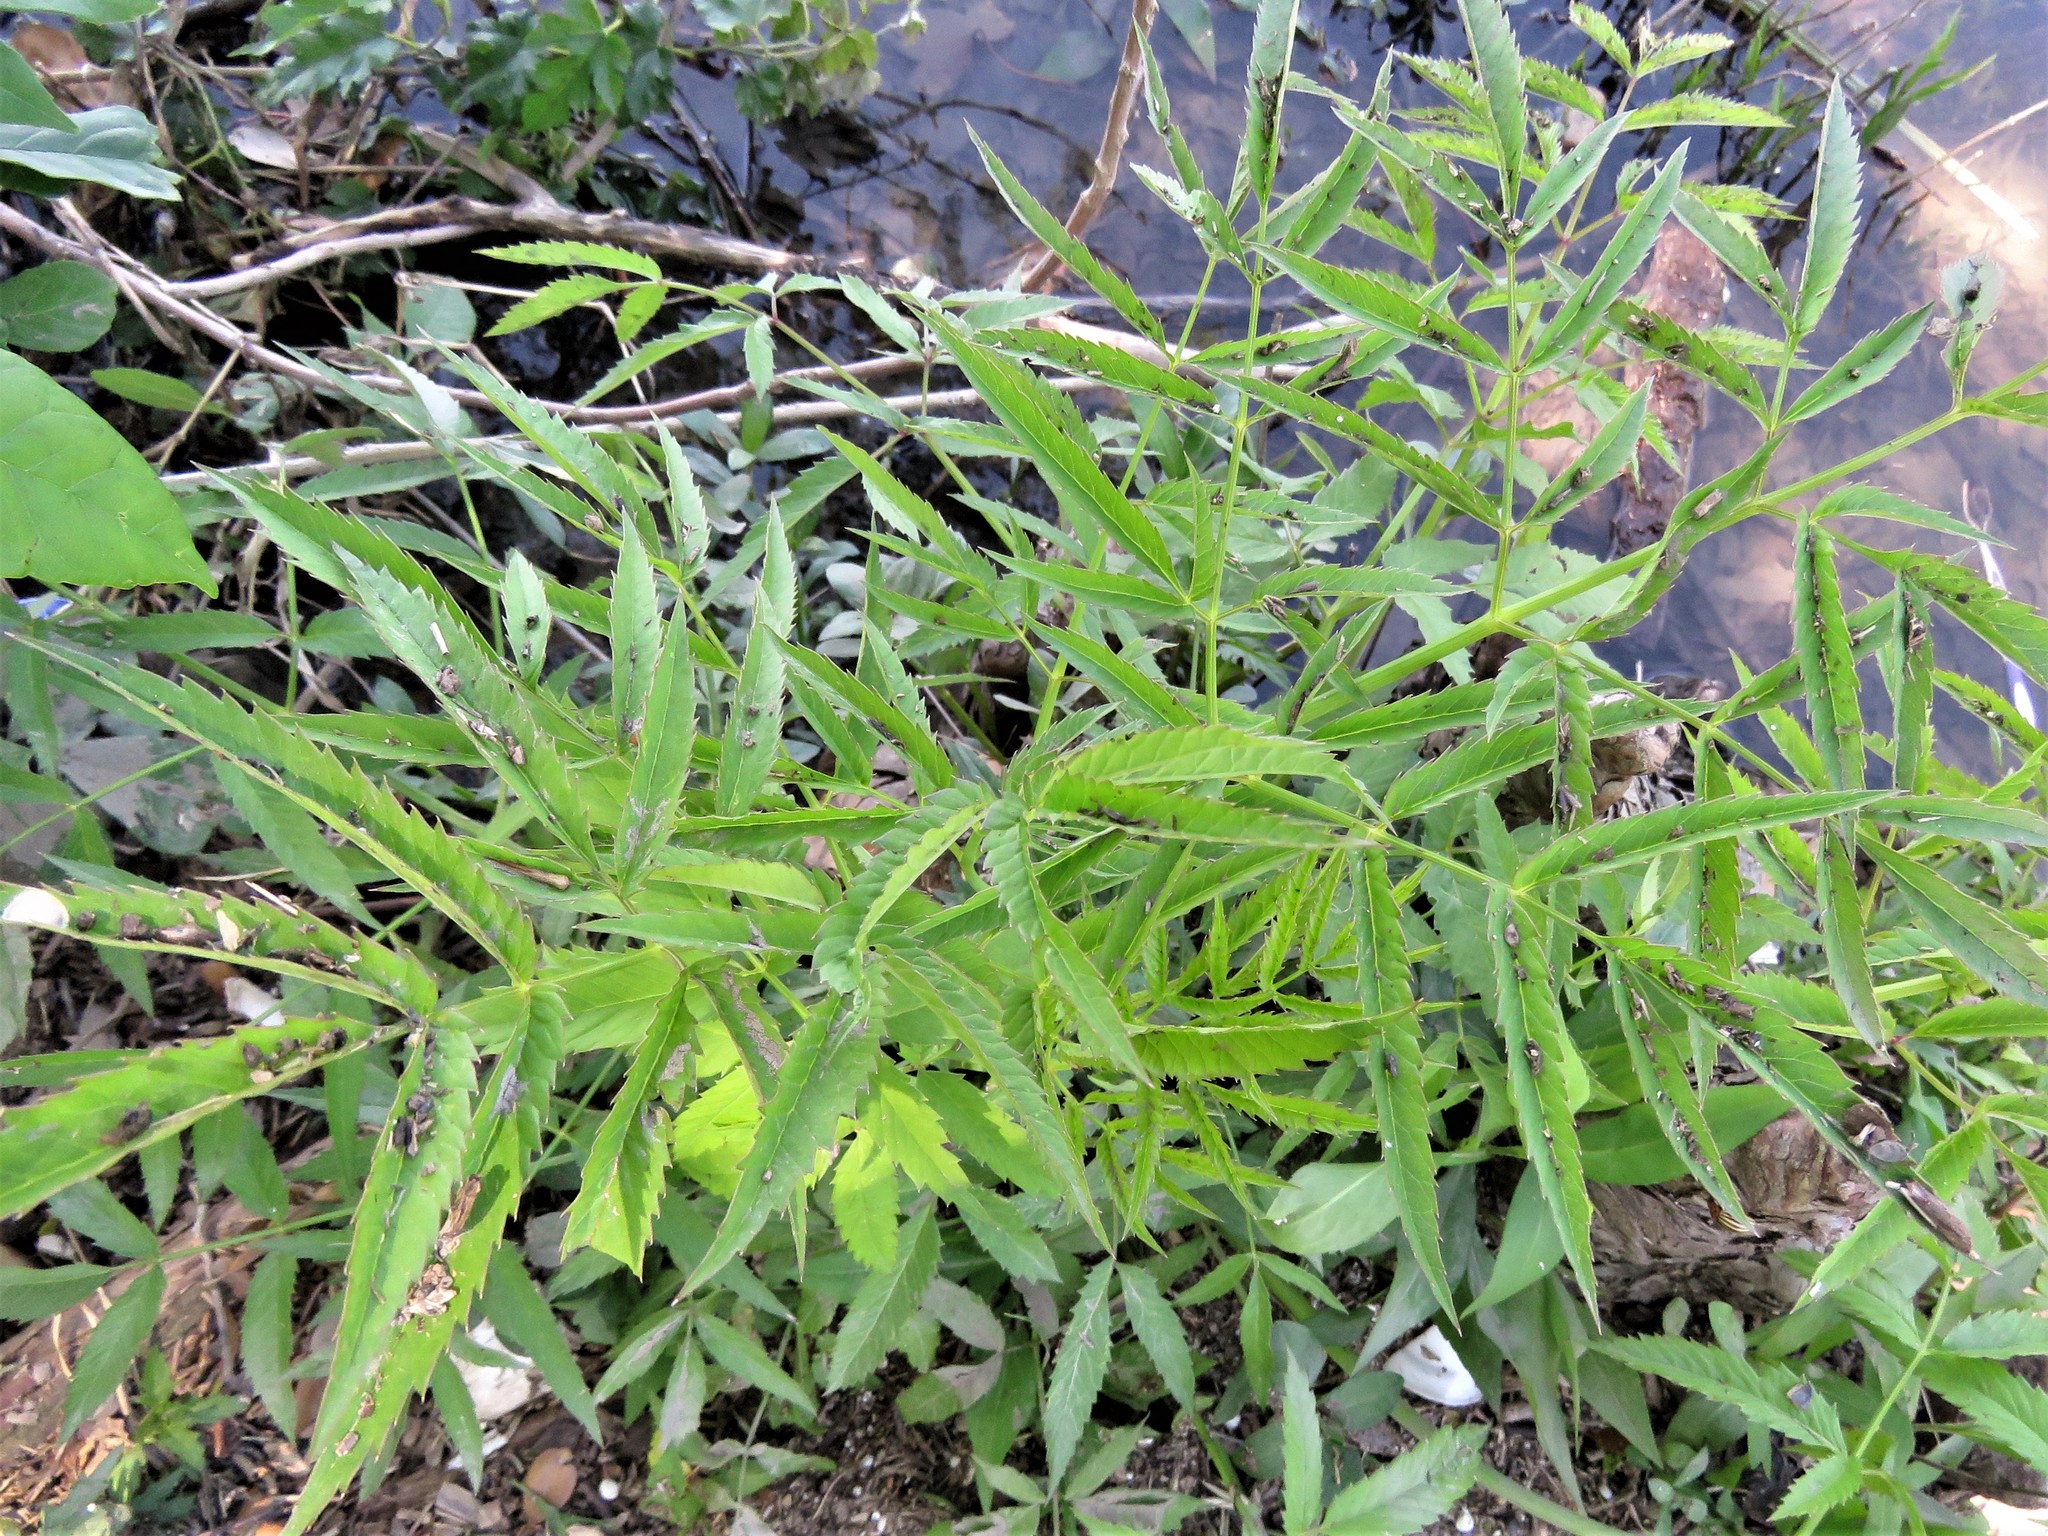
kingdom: Plantae
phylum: Tracheophyta
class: Magnoliopsida
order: Apiales
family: Apiaceae
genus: Cicuta
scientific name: Cicuta maculata
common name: Spotted cowbane
